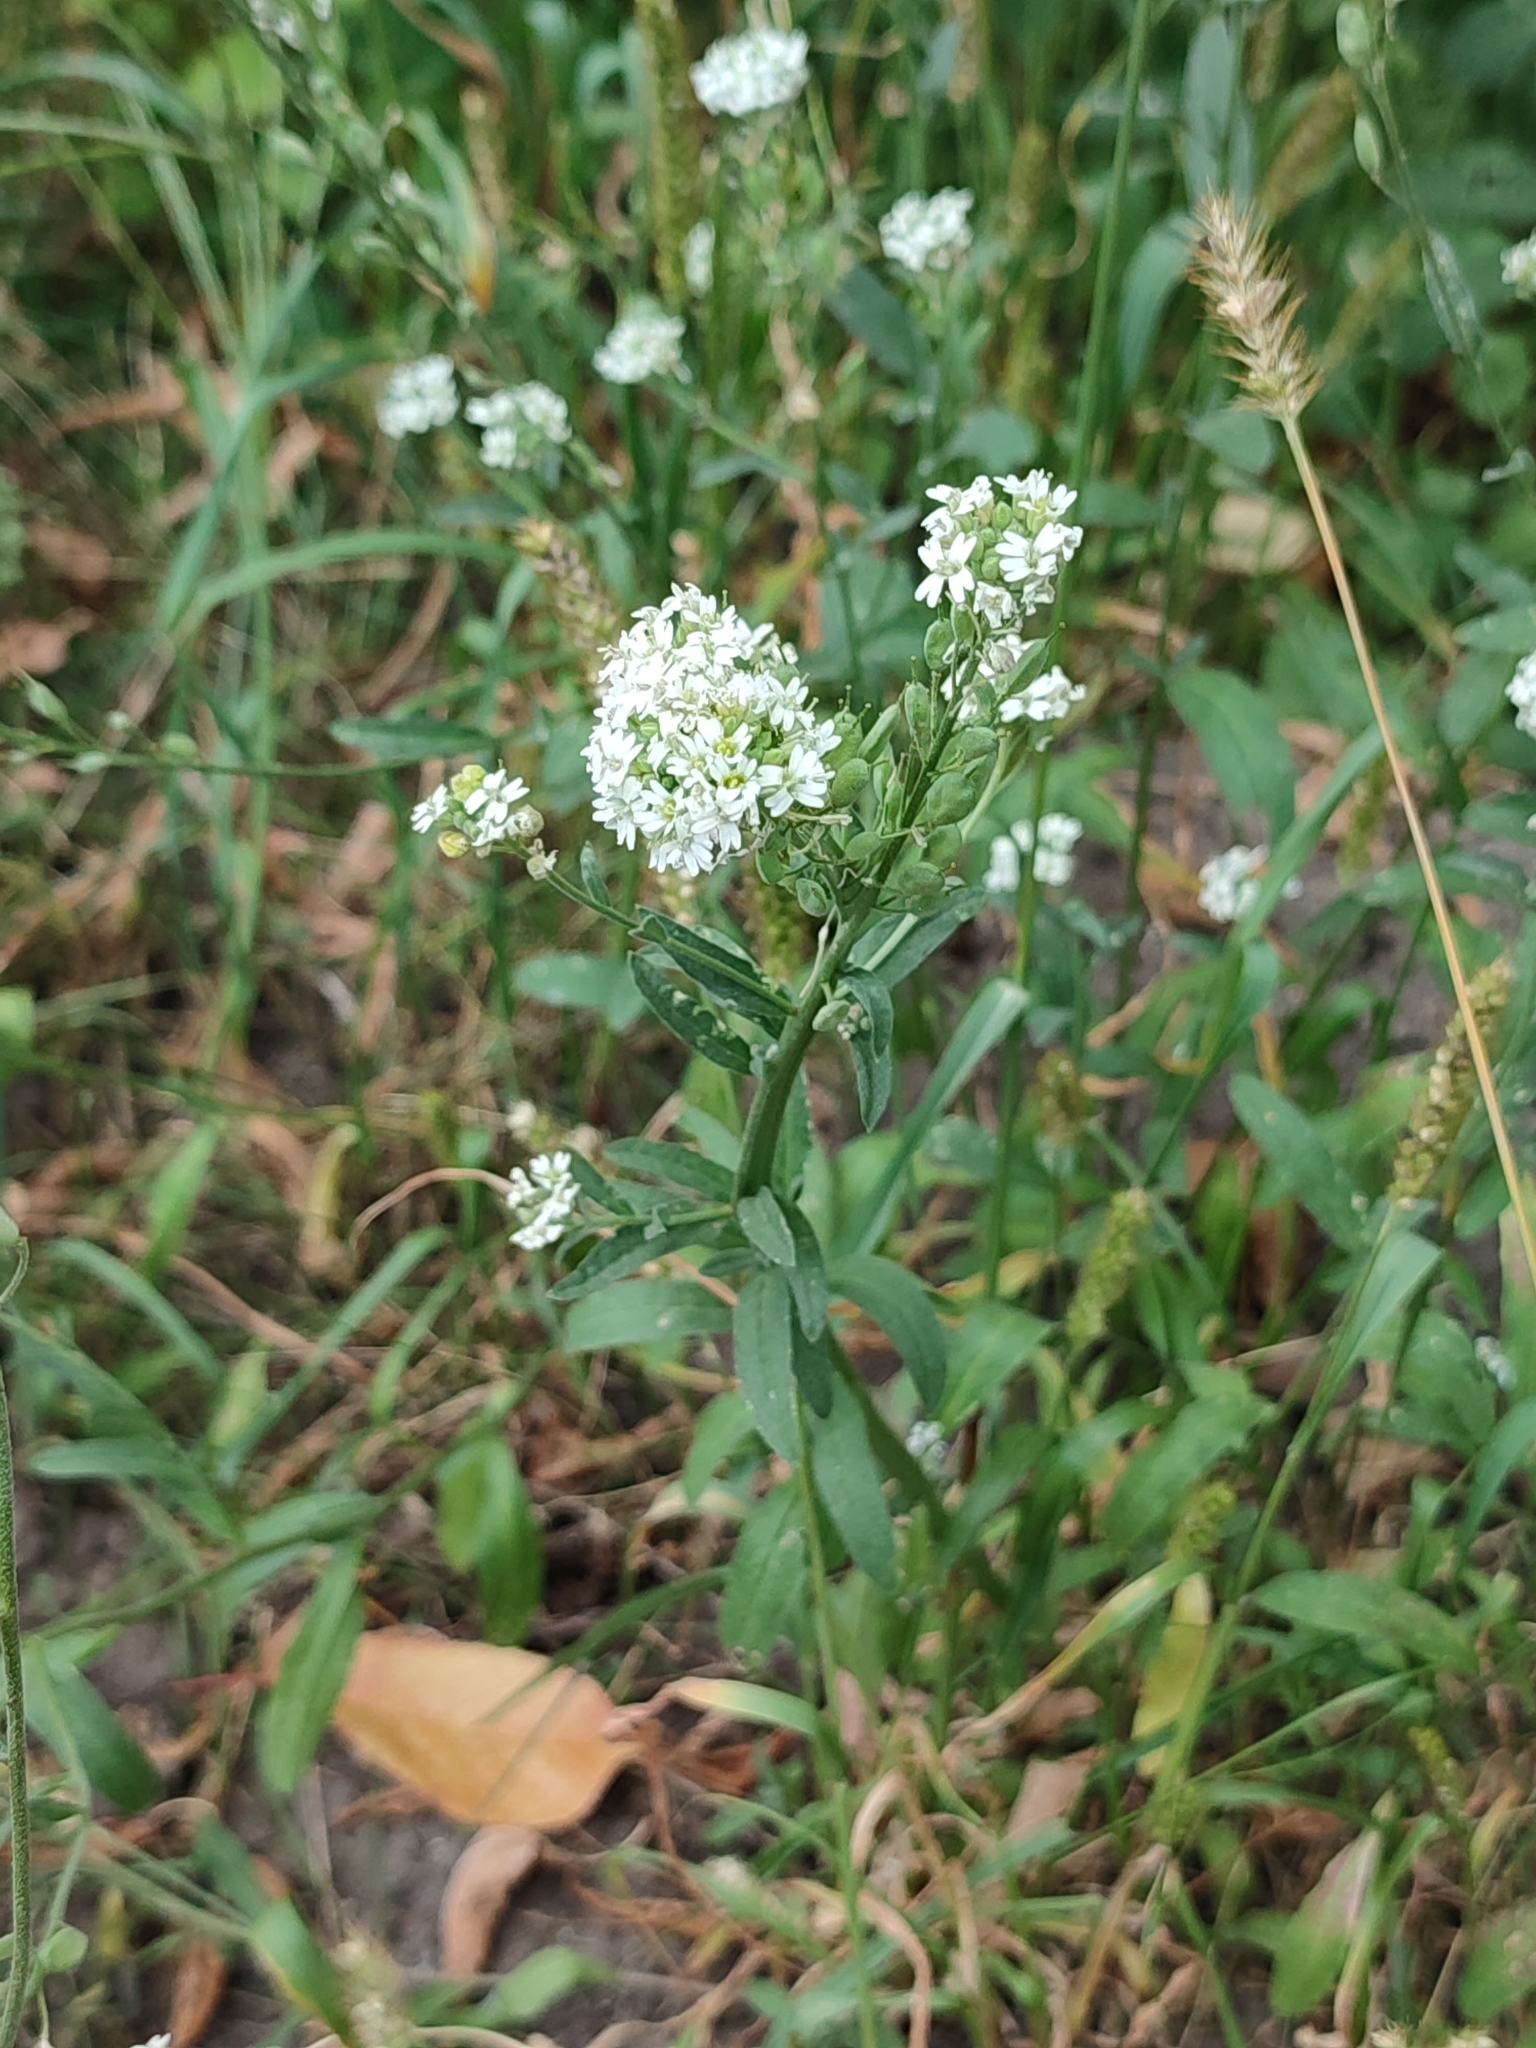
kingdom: Plantae
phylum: Tracheophyta
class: Magnoliopsida
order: Brassicales
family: Brassicaceae
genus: Berteroa
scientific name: Berteroa incana
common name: Hoary alison
